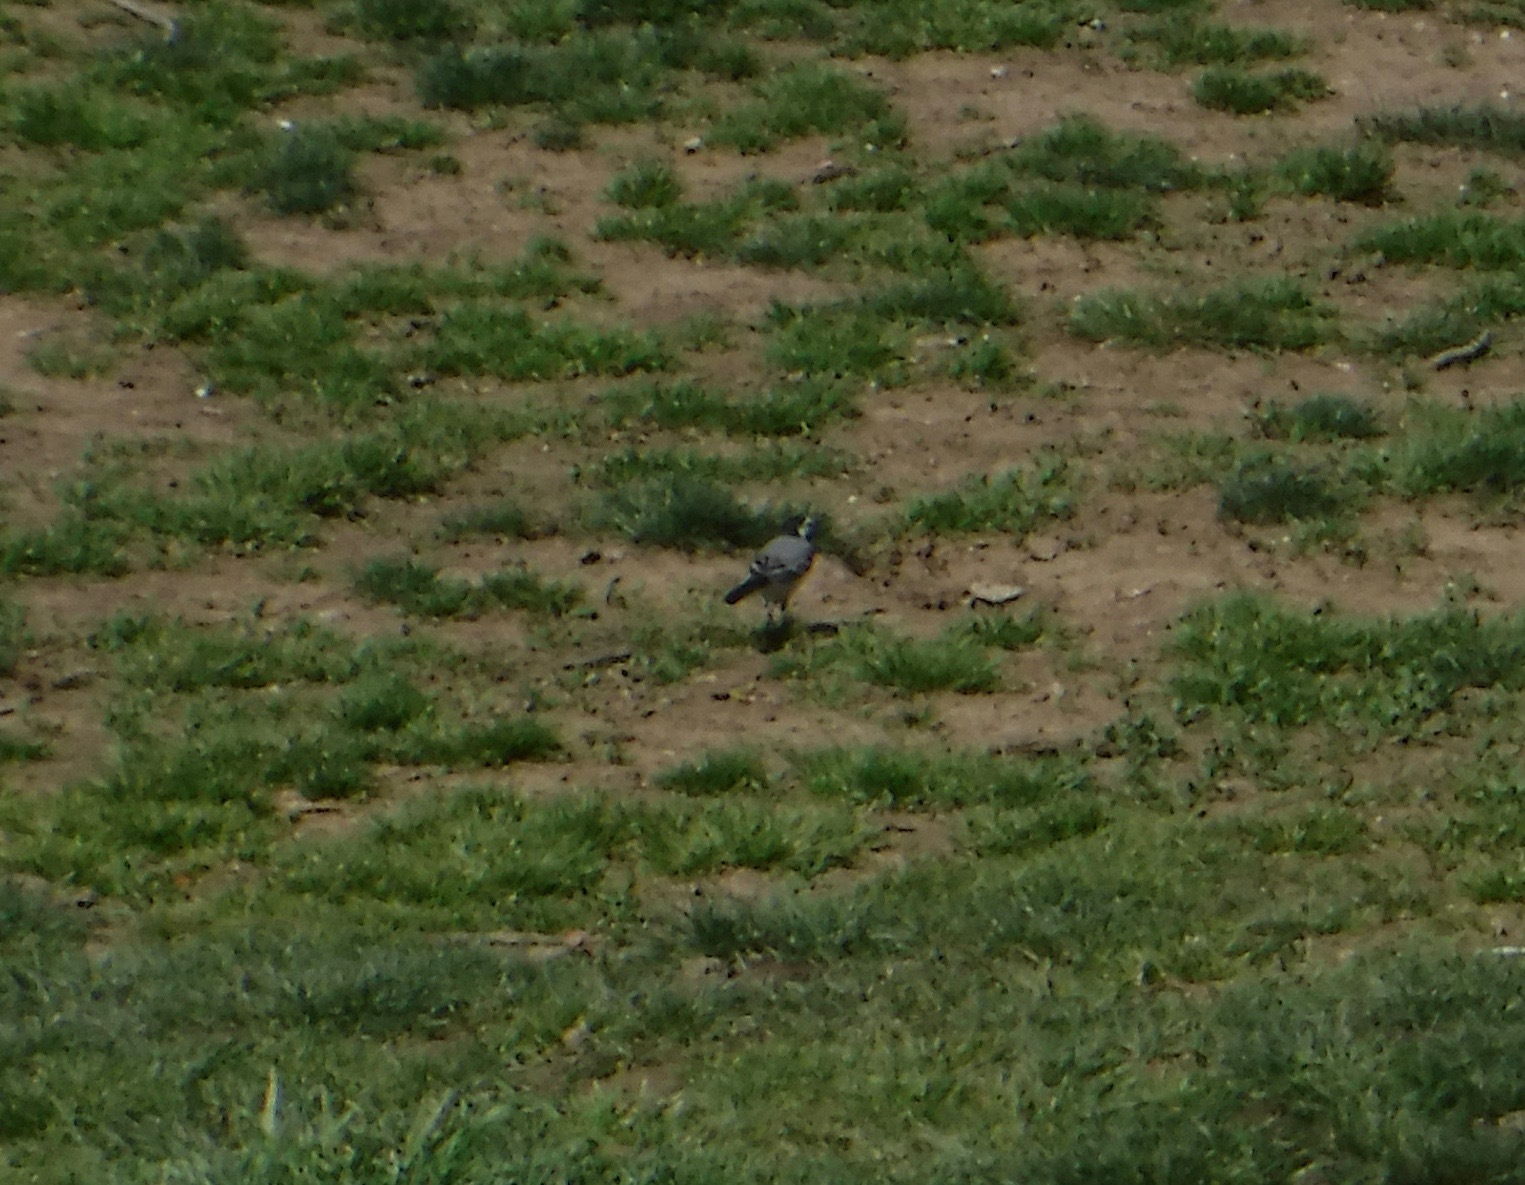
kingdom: Animalia
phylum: Chordata
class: Aves
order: Passeriformes
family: Motacillidae
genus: Motacilla
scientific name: Motacilla alba
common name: White wagtail
